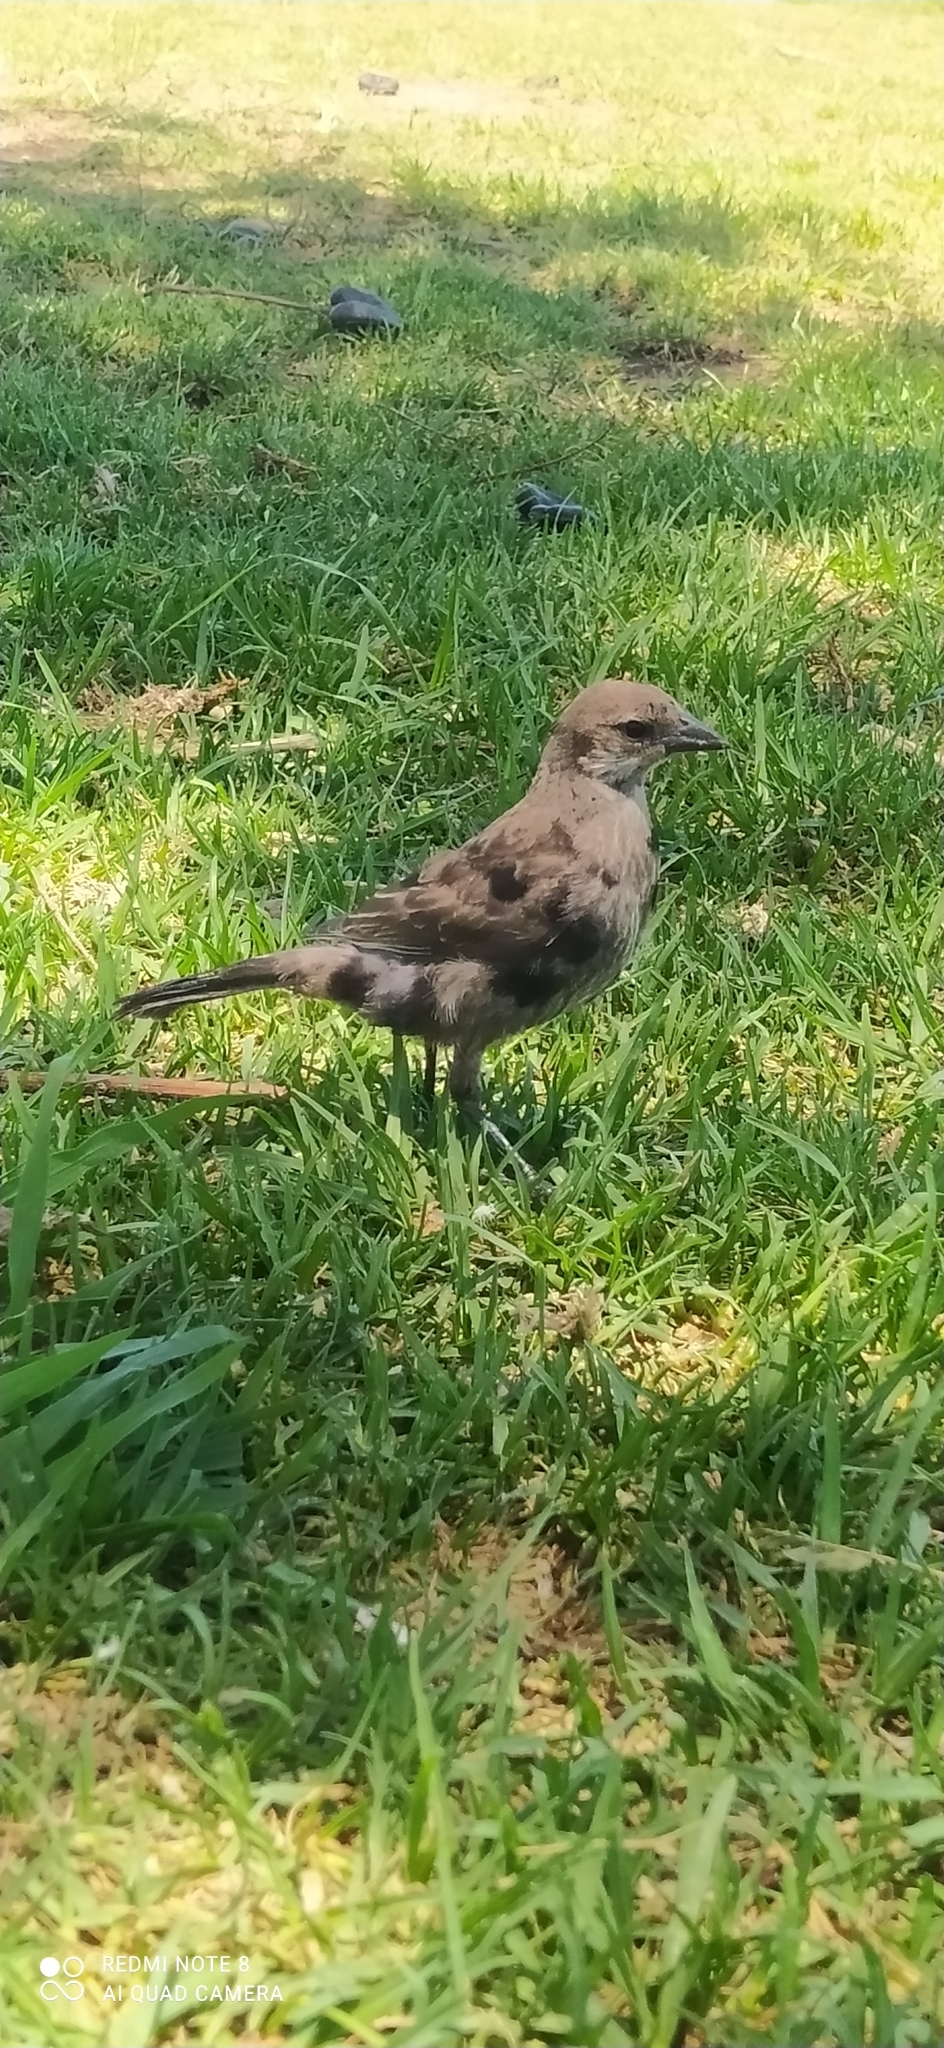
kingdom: Animalia
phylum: Chordata
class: Aves
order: Passeriformes
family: Icteridae
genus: Molothrus
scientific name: Molothrus bonariensis
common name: Shiny cowbird
